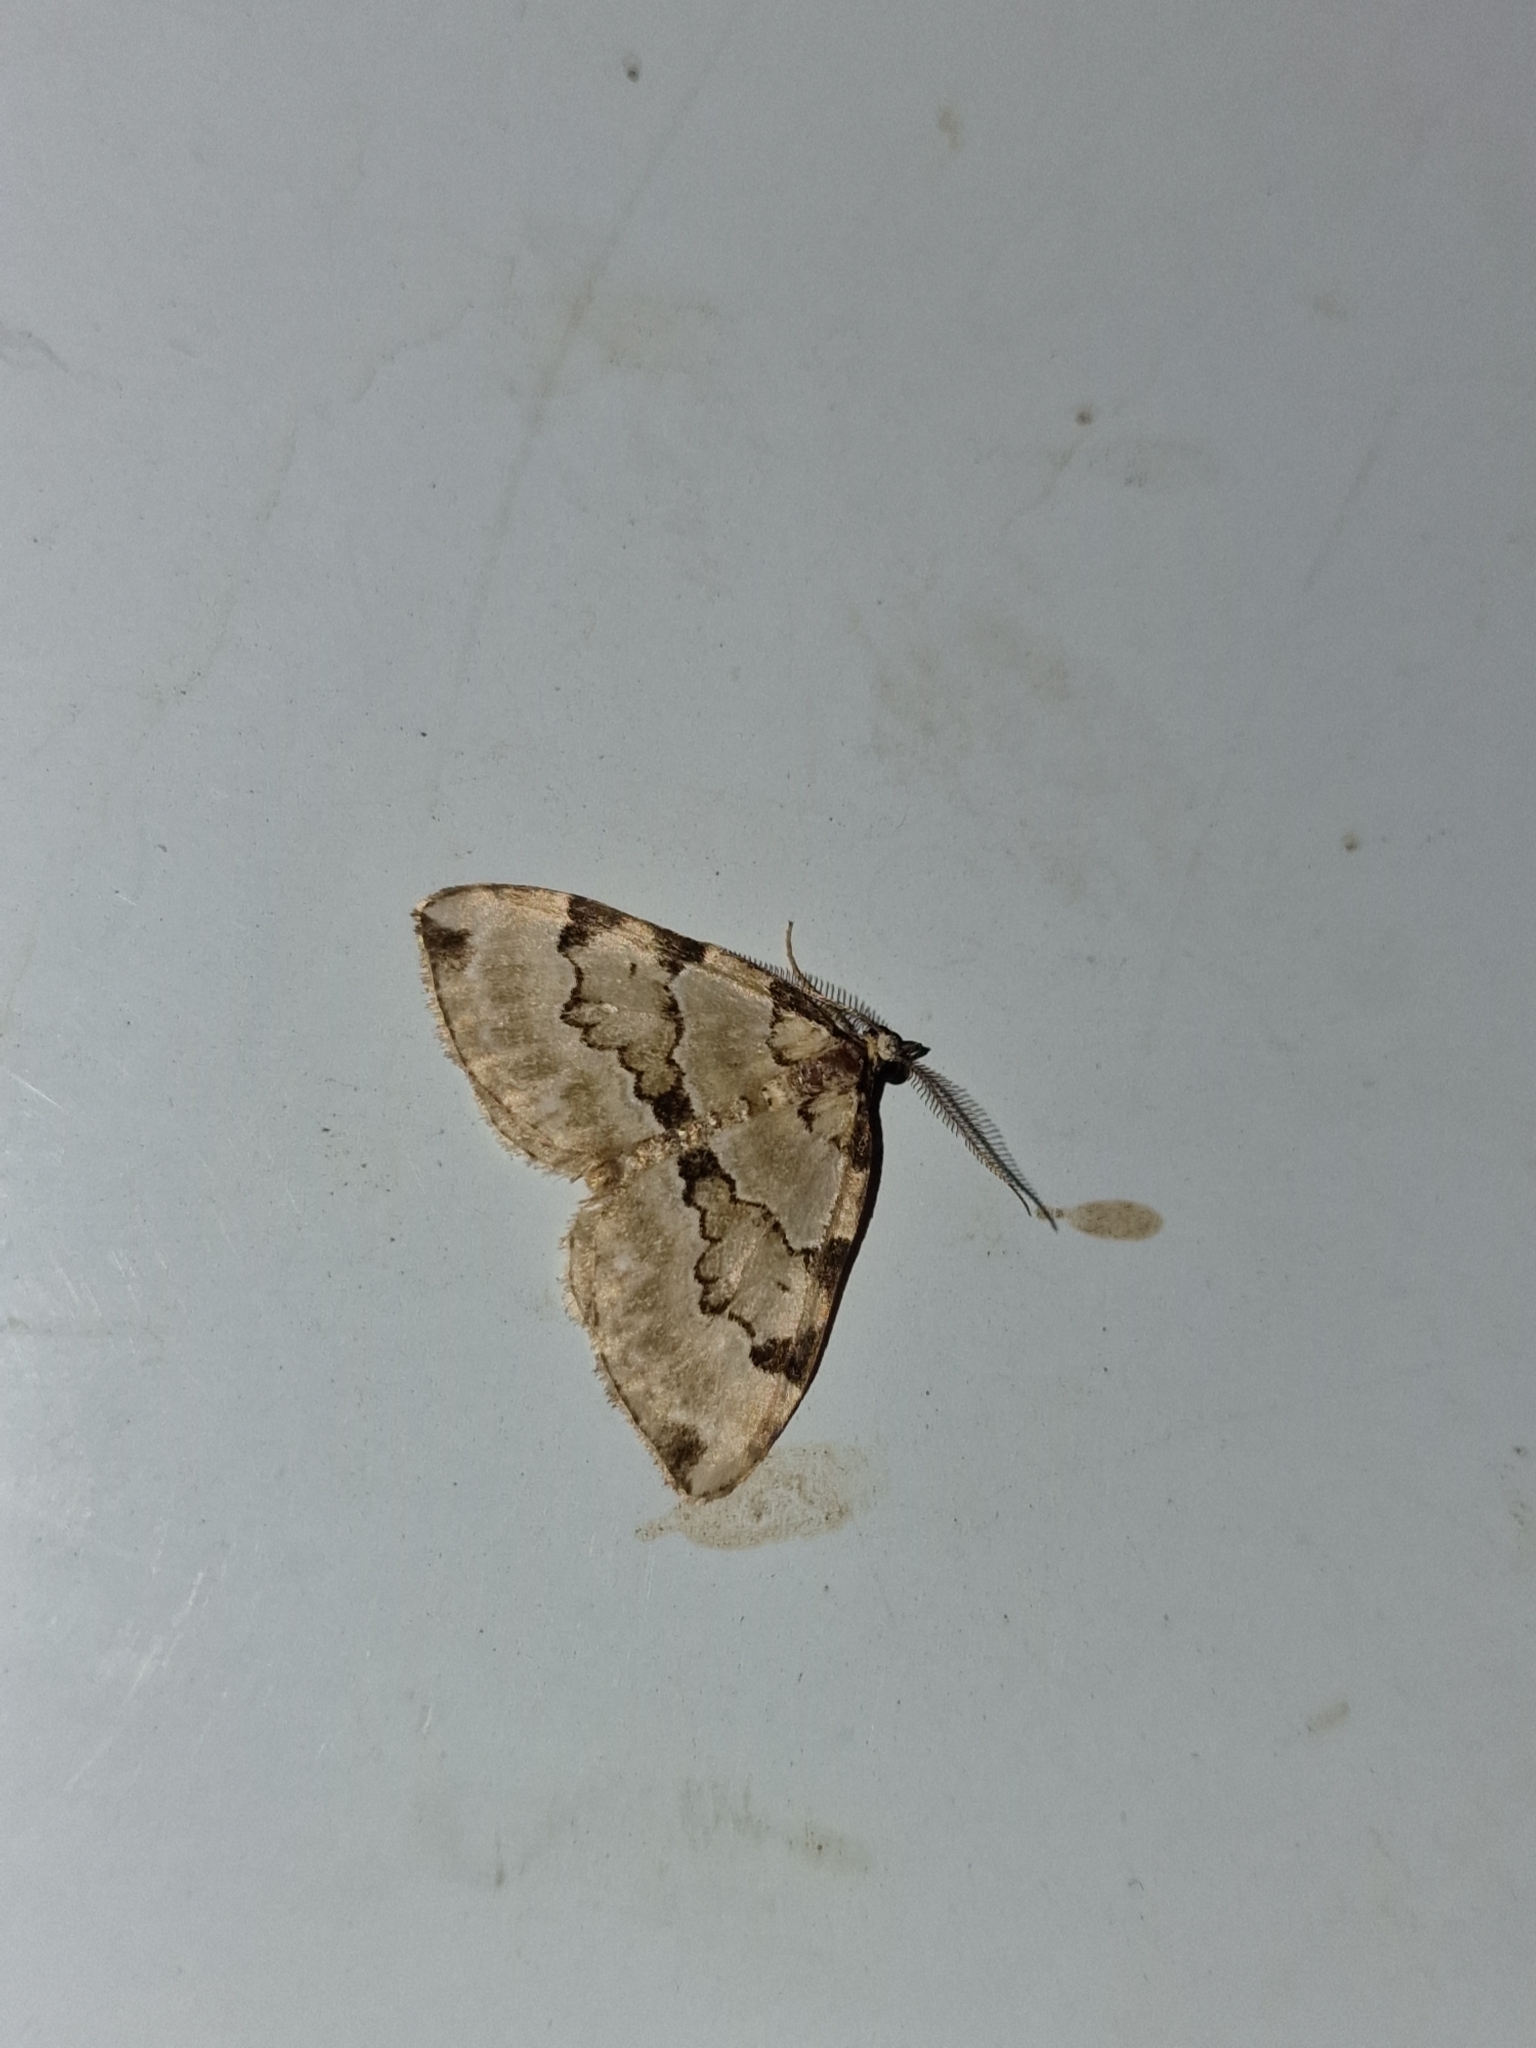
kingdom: Animalia
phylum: Arthropoda
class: Insecta
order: Lepidoptera
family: Geometridae
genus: Colostygia
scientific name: Colostygia pectinataria
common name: Green carpet
